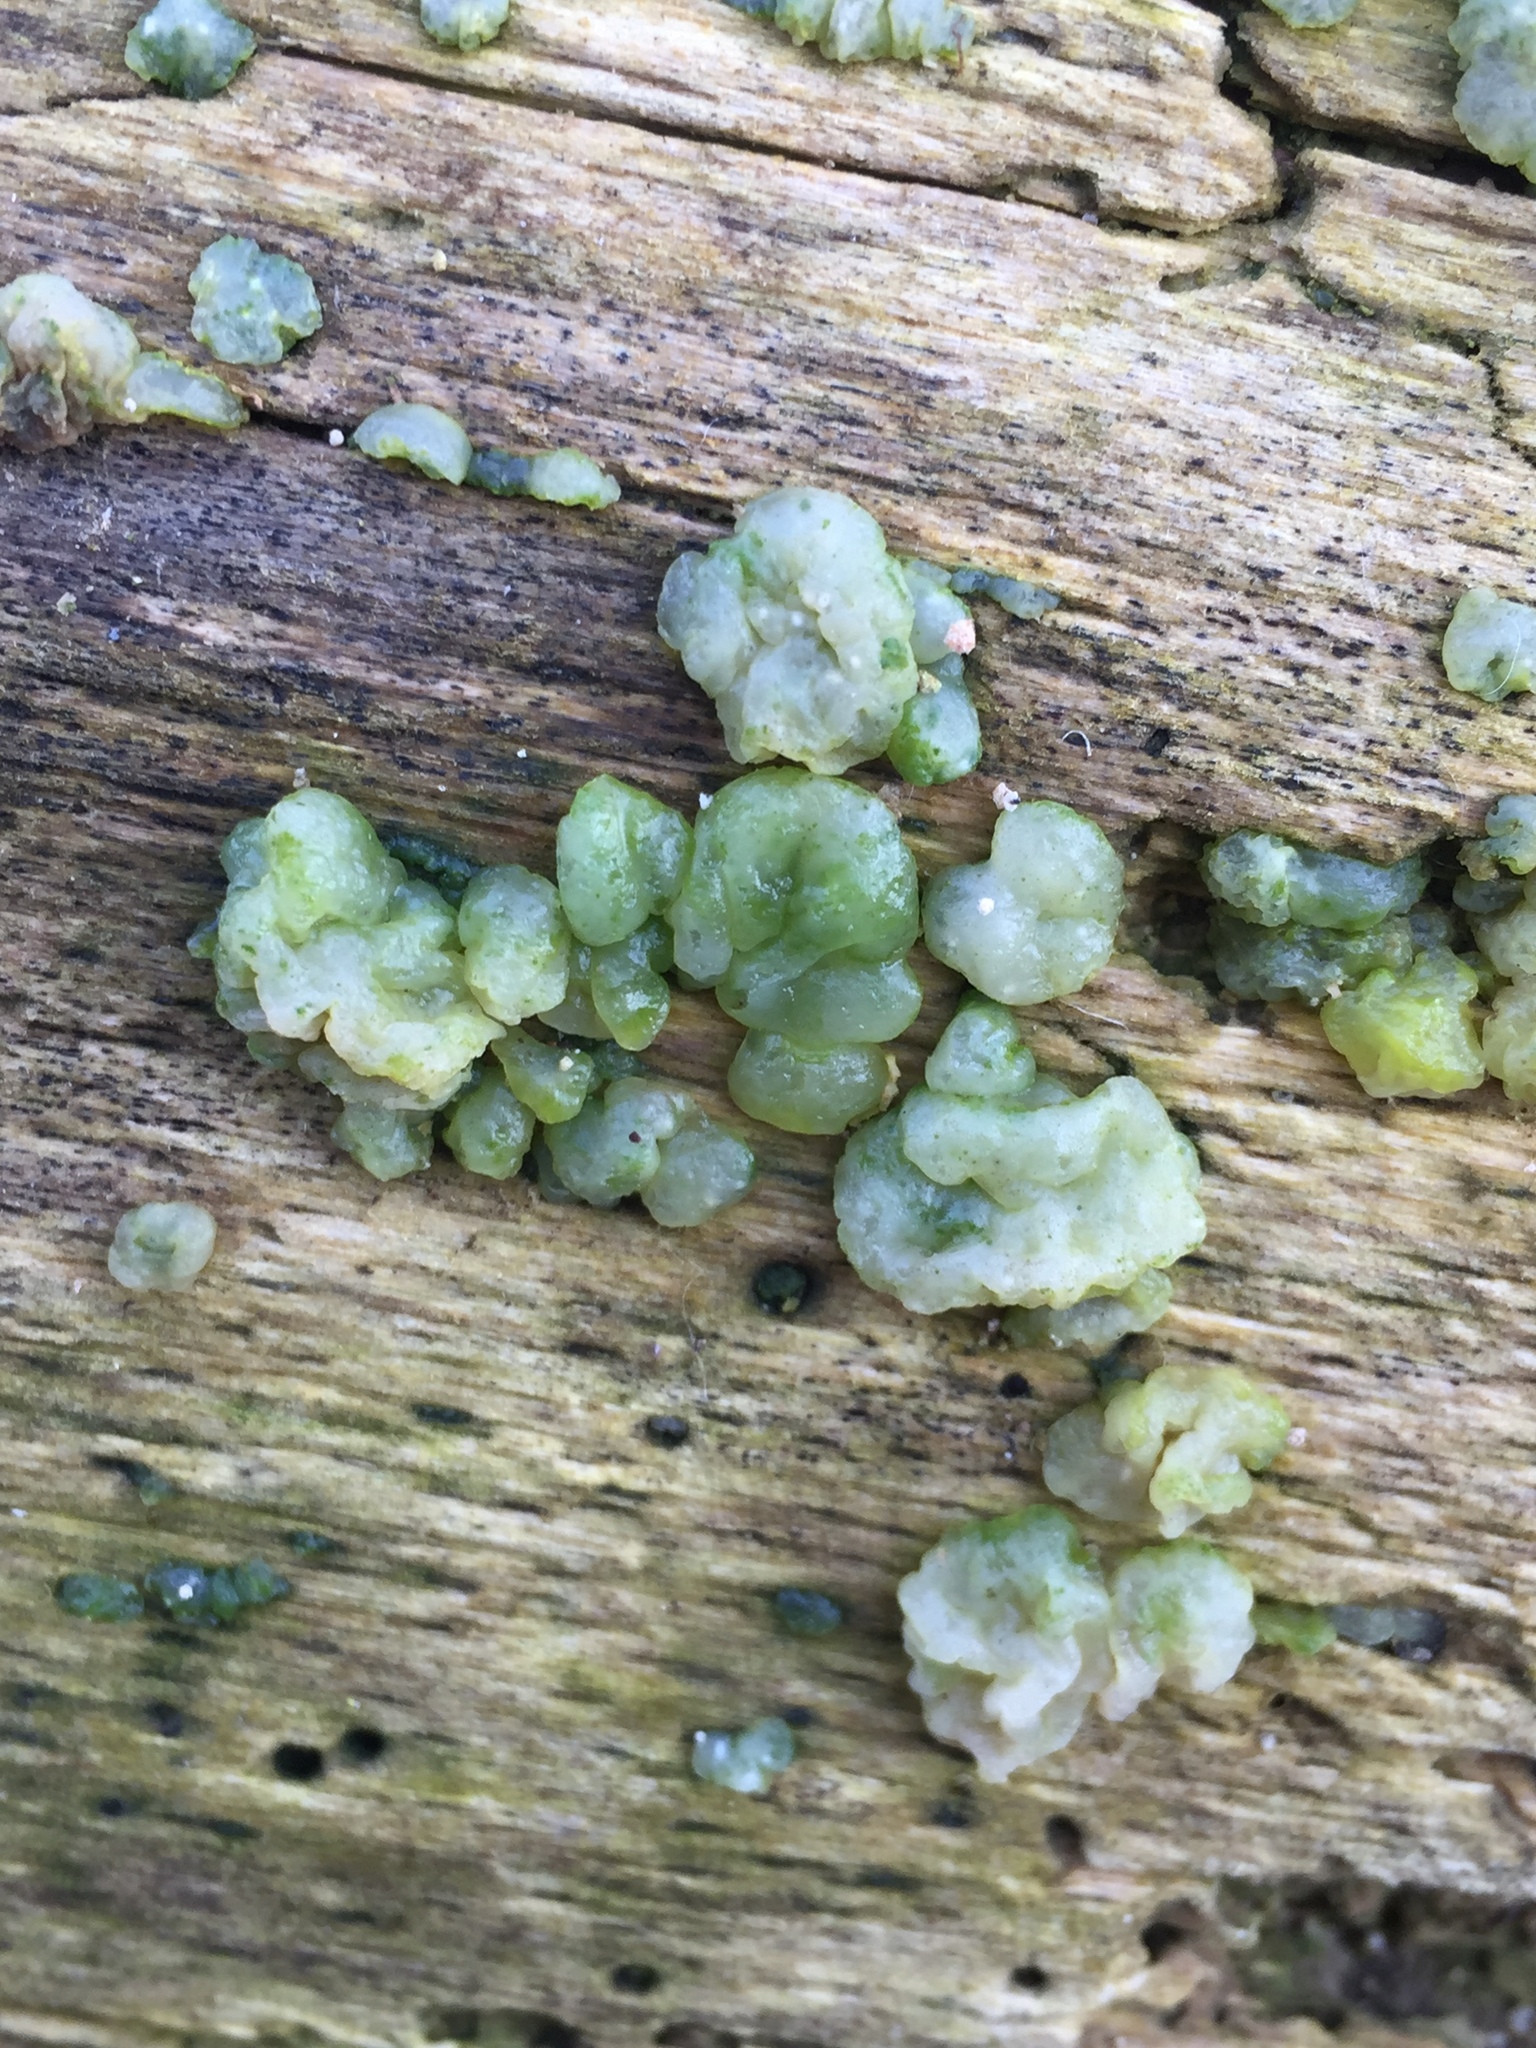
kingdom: Fungi
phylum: Basidiomycota
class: Agaricomycetes
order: Auriculariales
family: Hyaloriaceae
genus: Myxarium
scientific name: Myxarium nucleatum
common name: Crystal brain fungus
